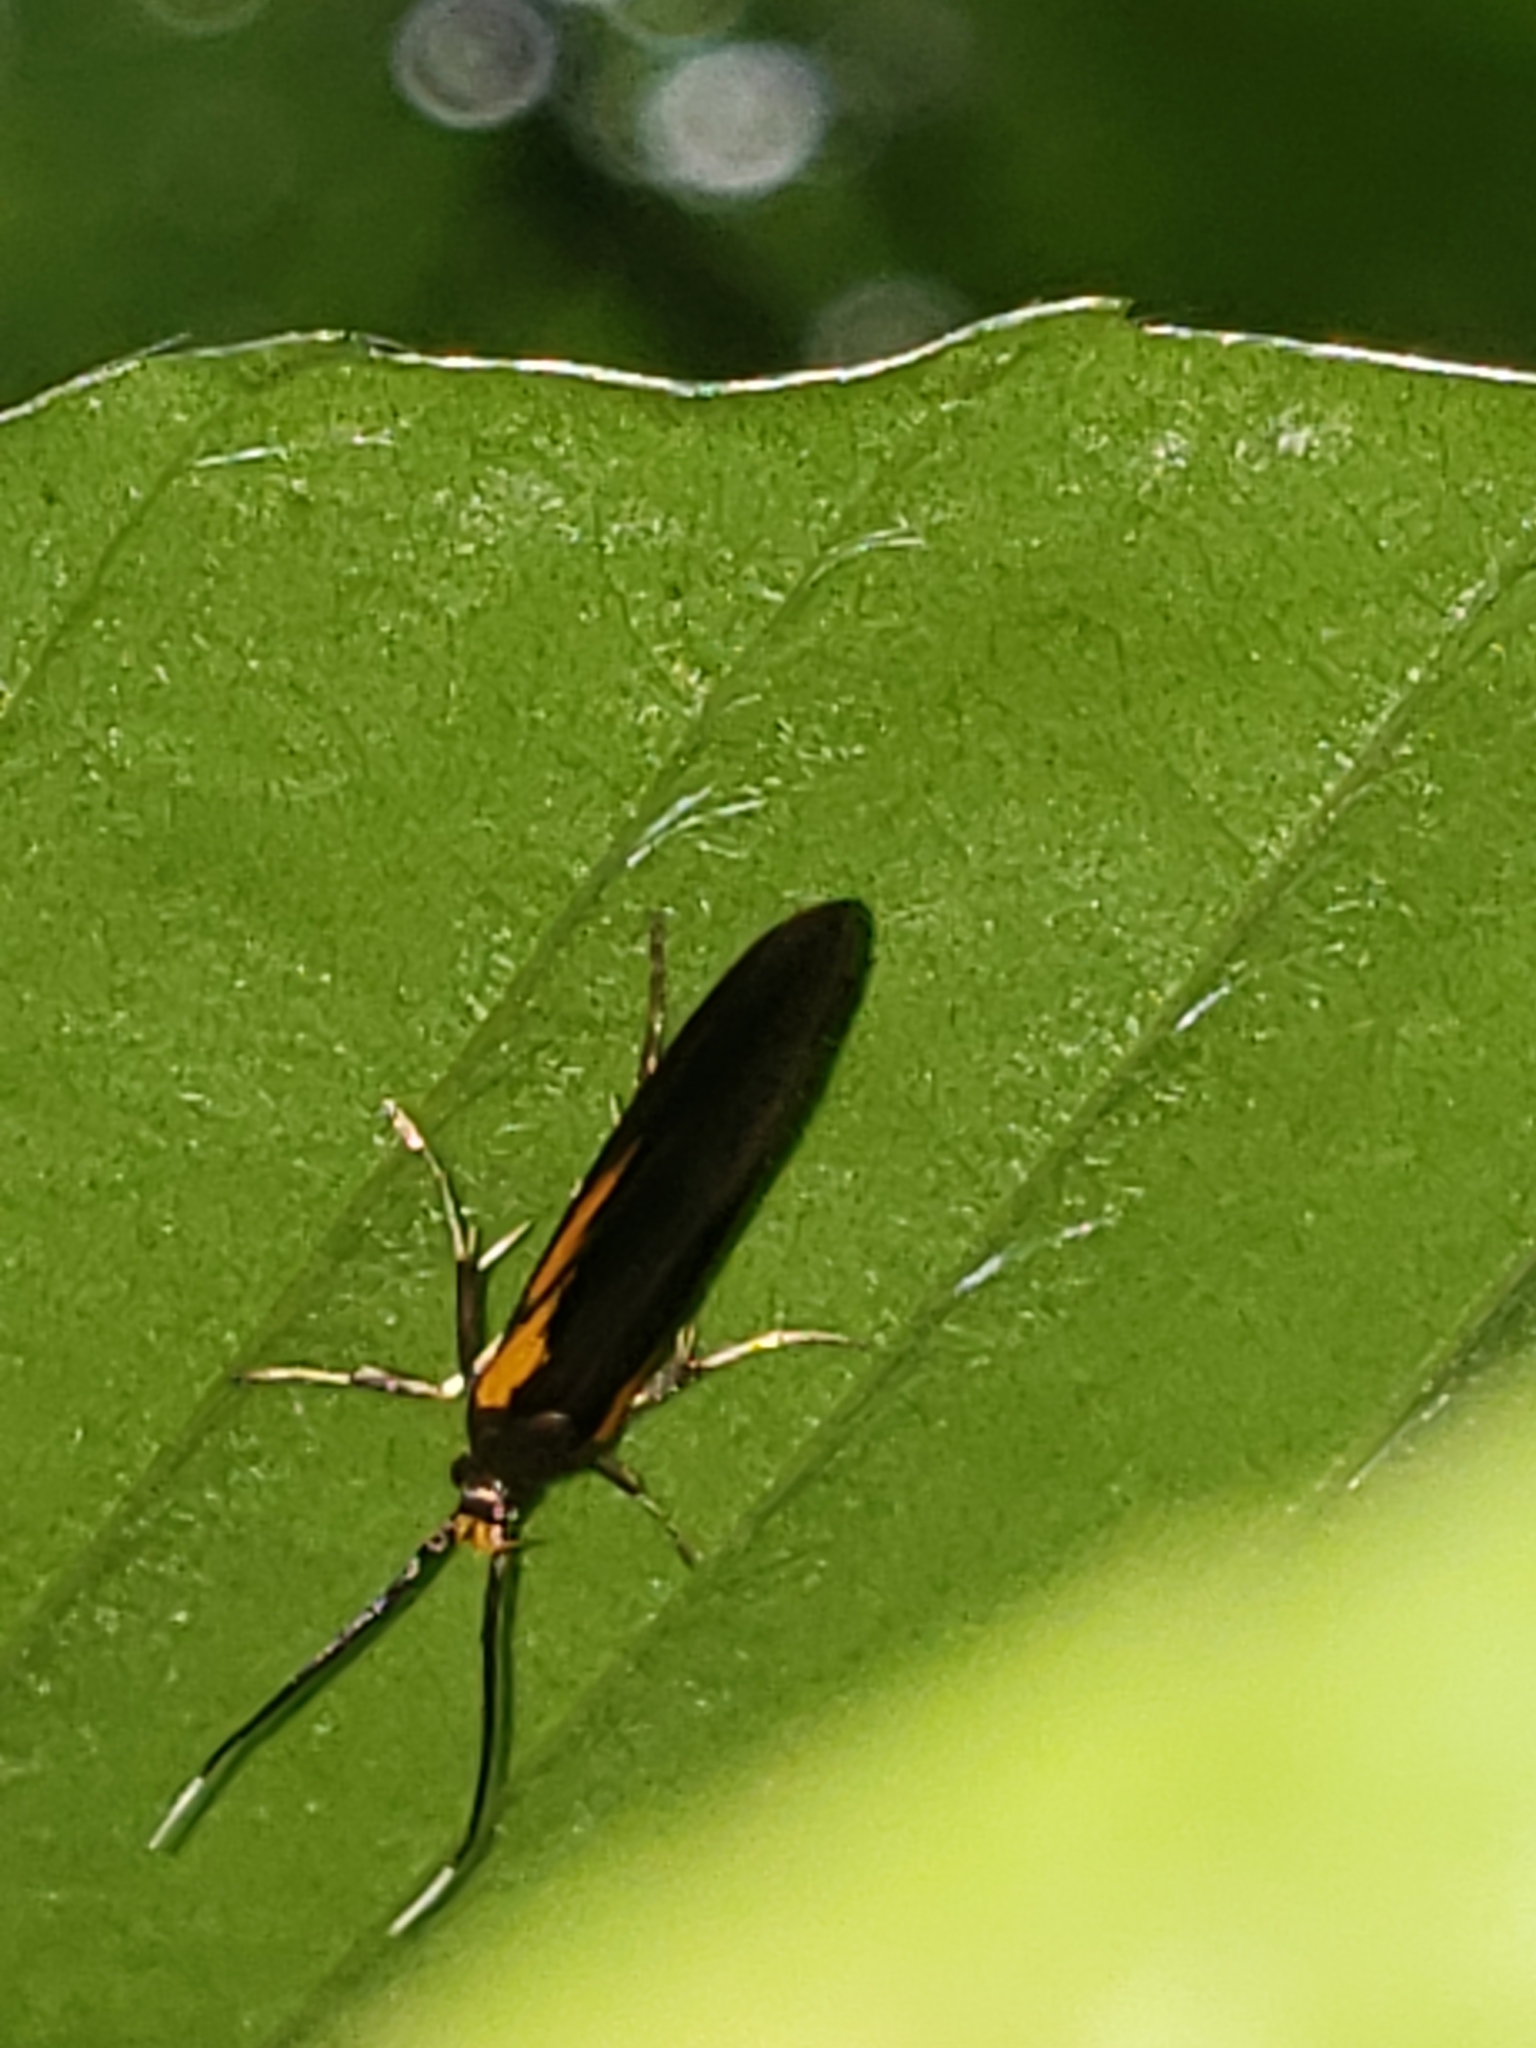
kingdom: Animalia
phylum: Arthropoda
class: Insecta
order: Lepidoptera
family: Oecophoridae
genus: Mathildana
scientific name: Mathildana newmanella
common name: Newman's mathildana moth
